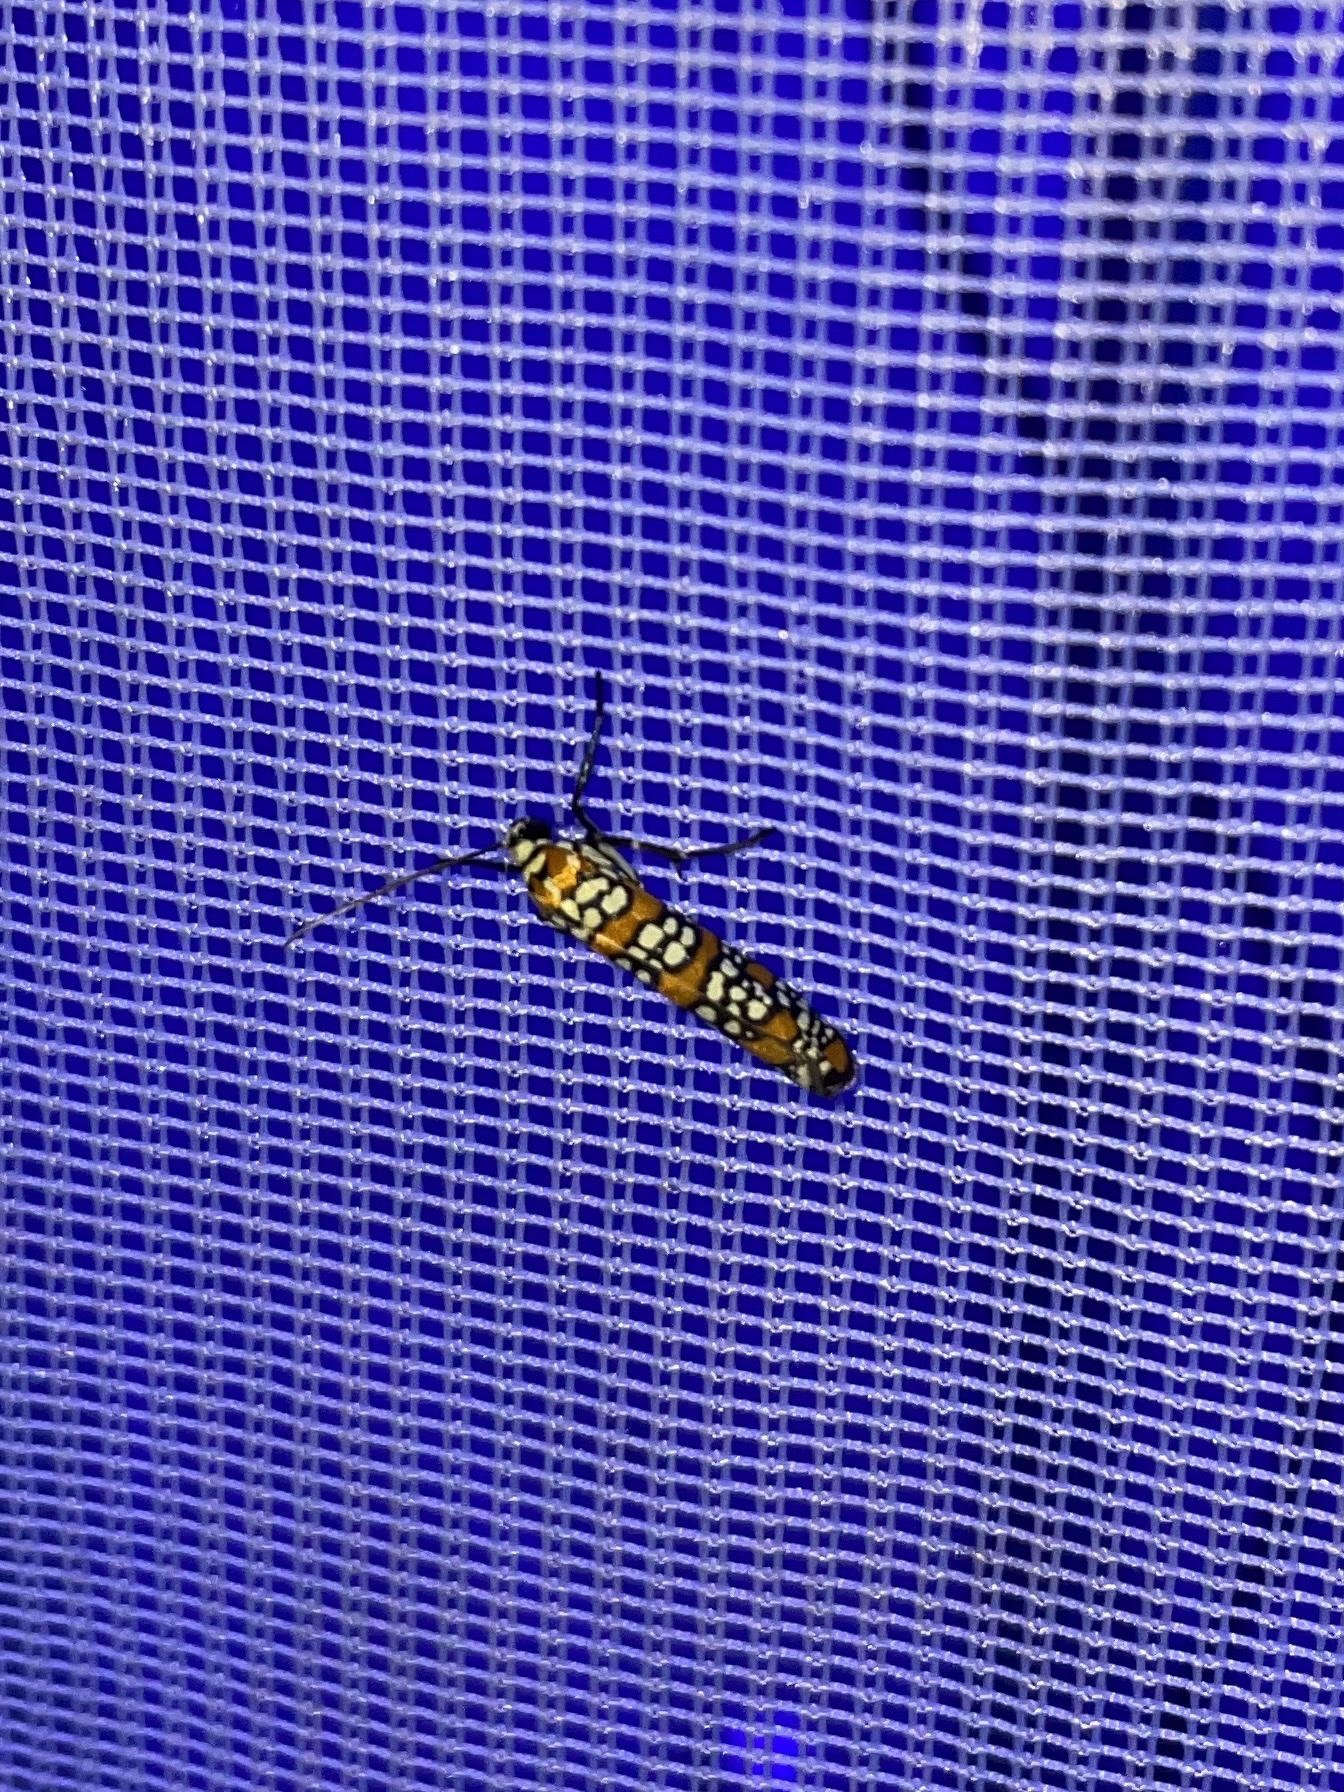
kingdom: Animalia
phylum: Arthropoda
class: Insecta
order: Lepidoptera
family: Attevidae
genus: Atteva
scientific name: Atteva punctella
